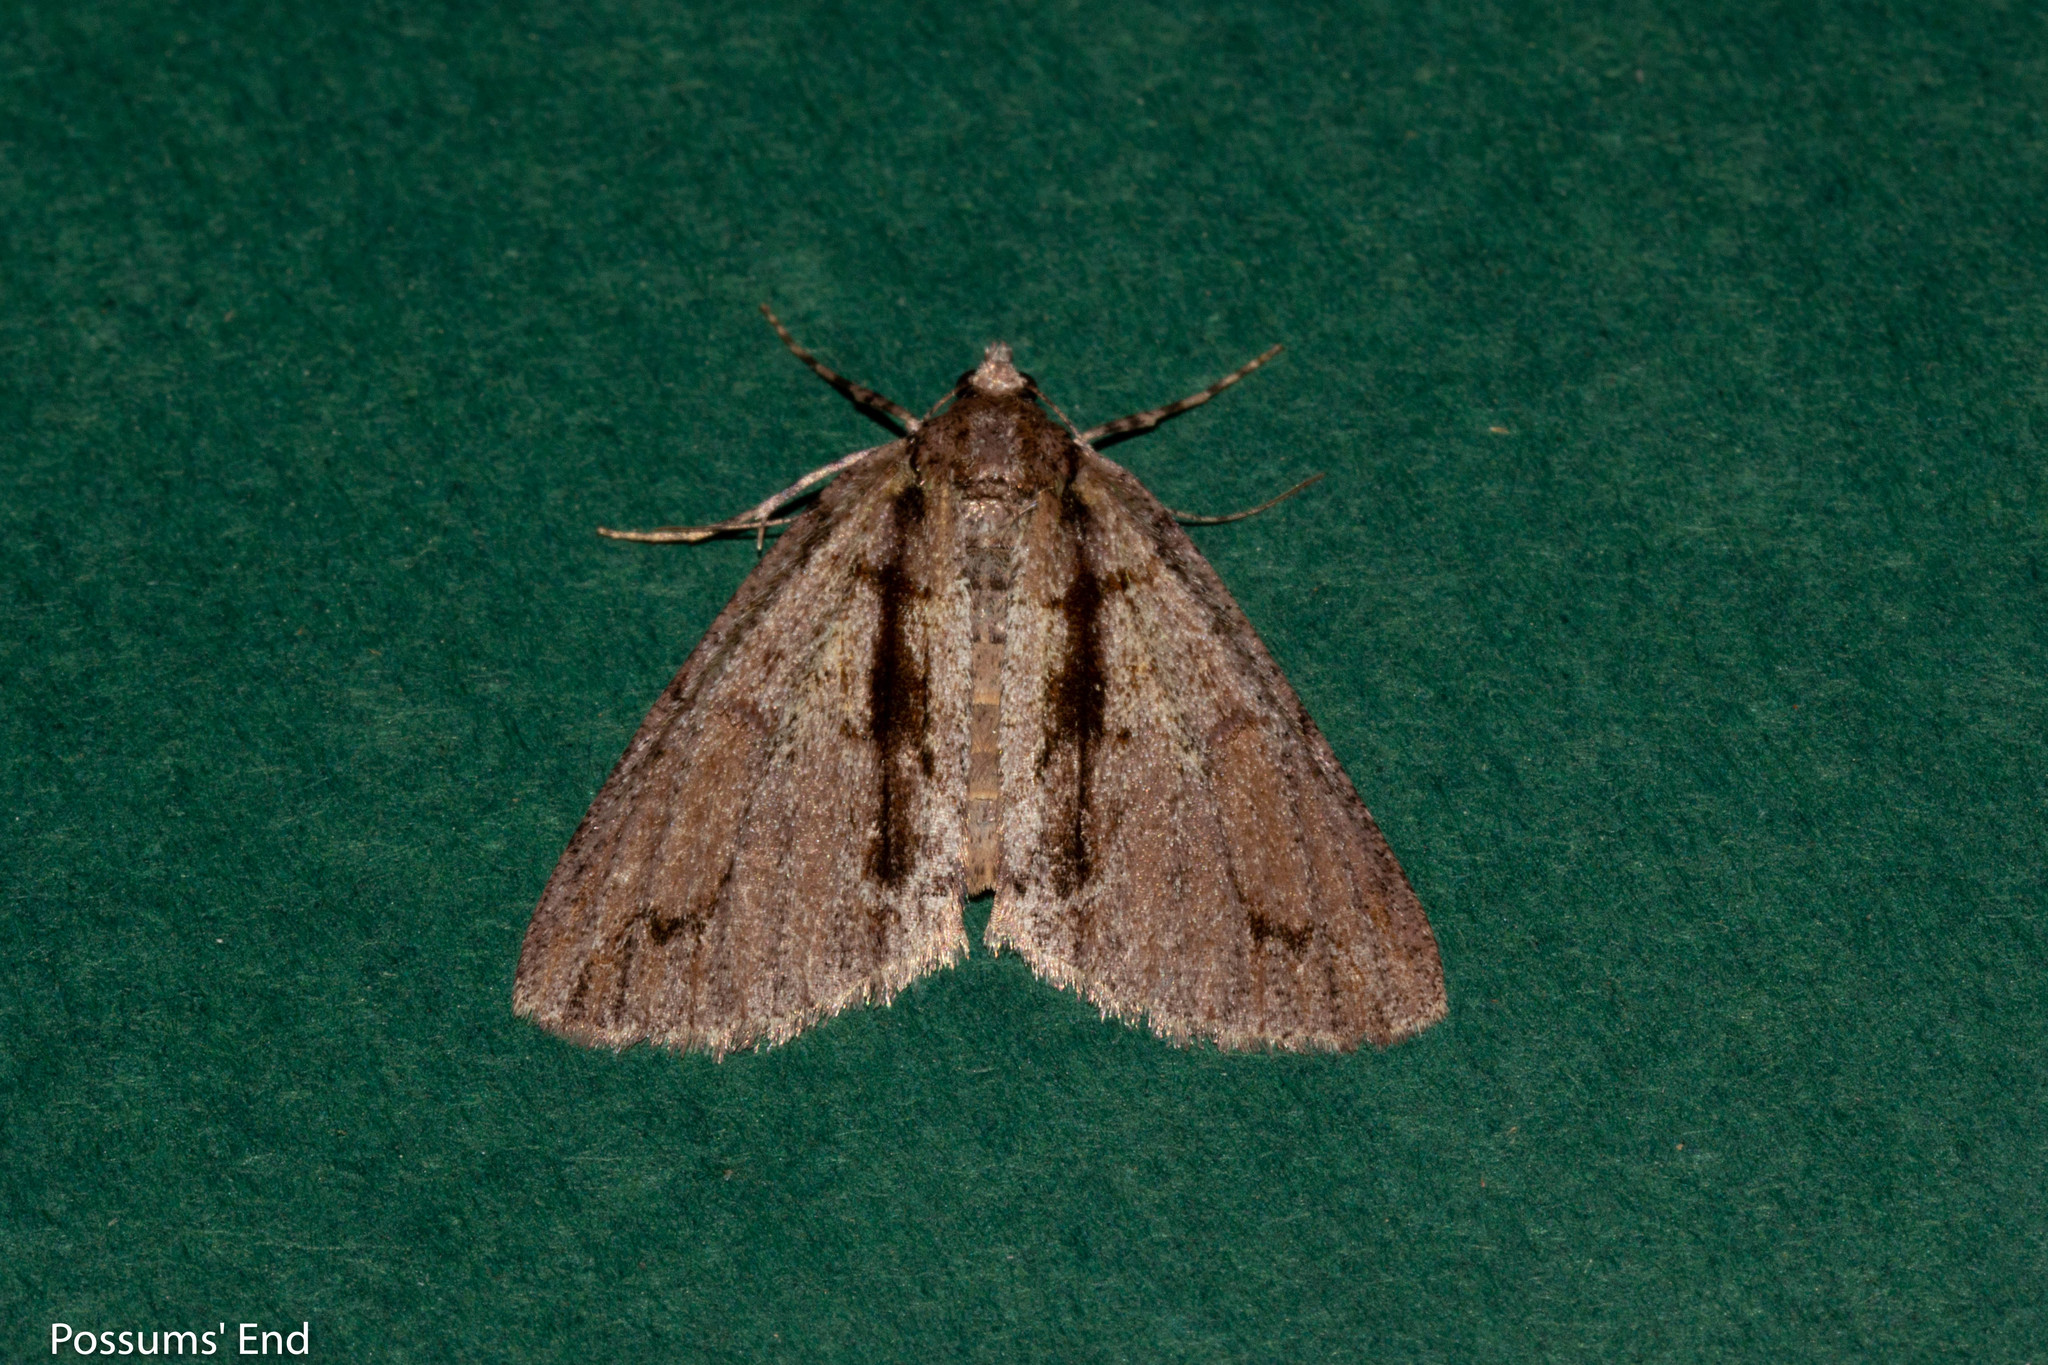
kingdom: Animalia
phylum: Arthropoda
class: Insecta
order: Lepidoptera
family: Geometridae
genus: Pseudocoremia
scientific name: Pseudocoremia suavis
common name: Common forest looper
